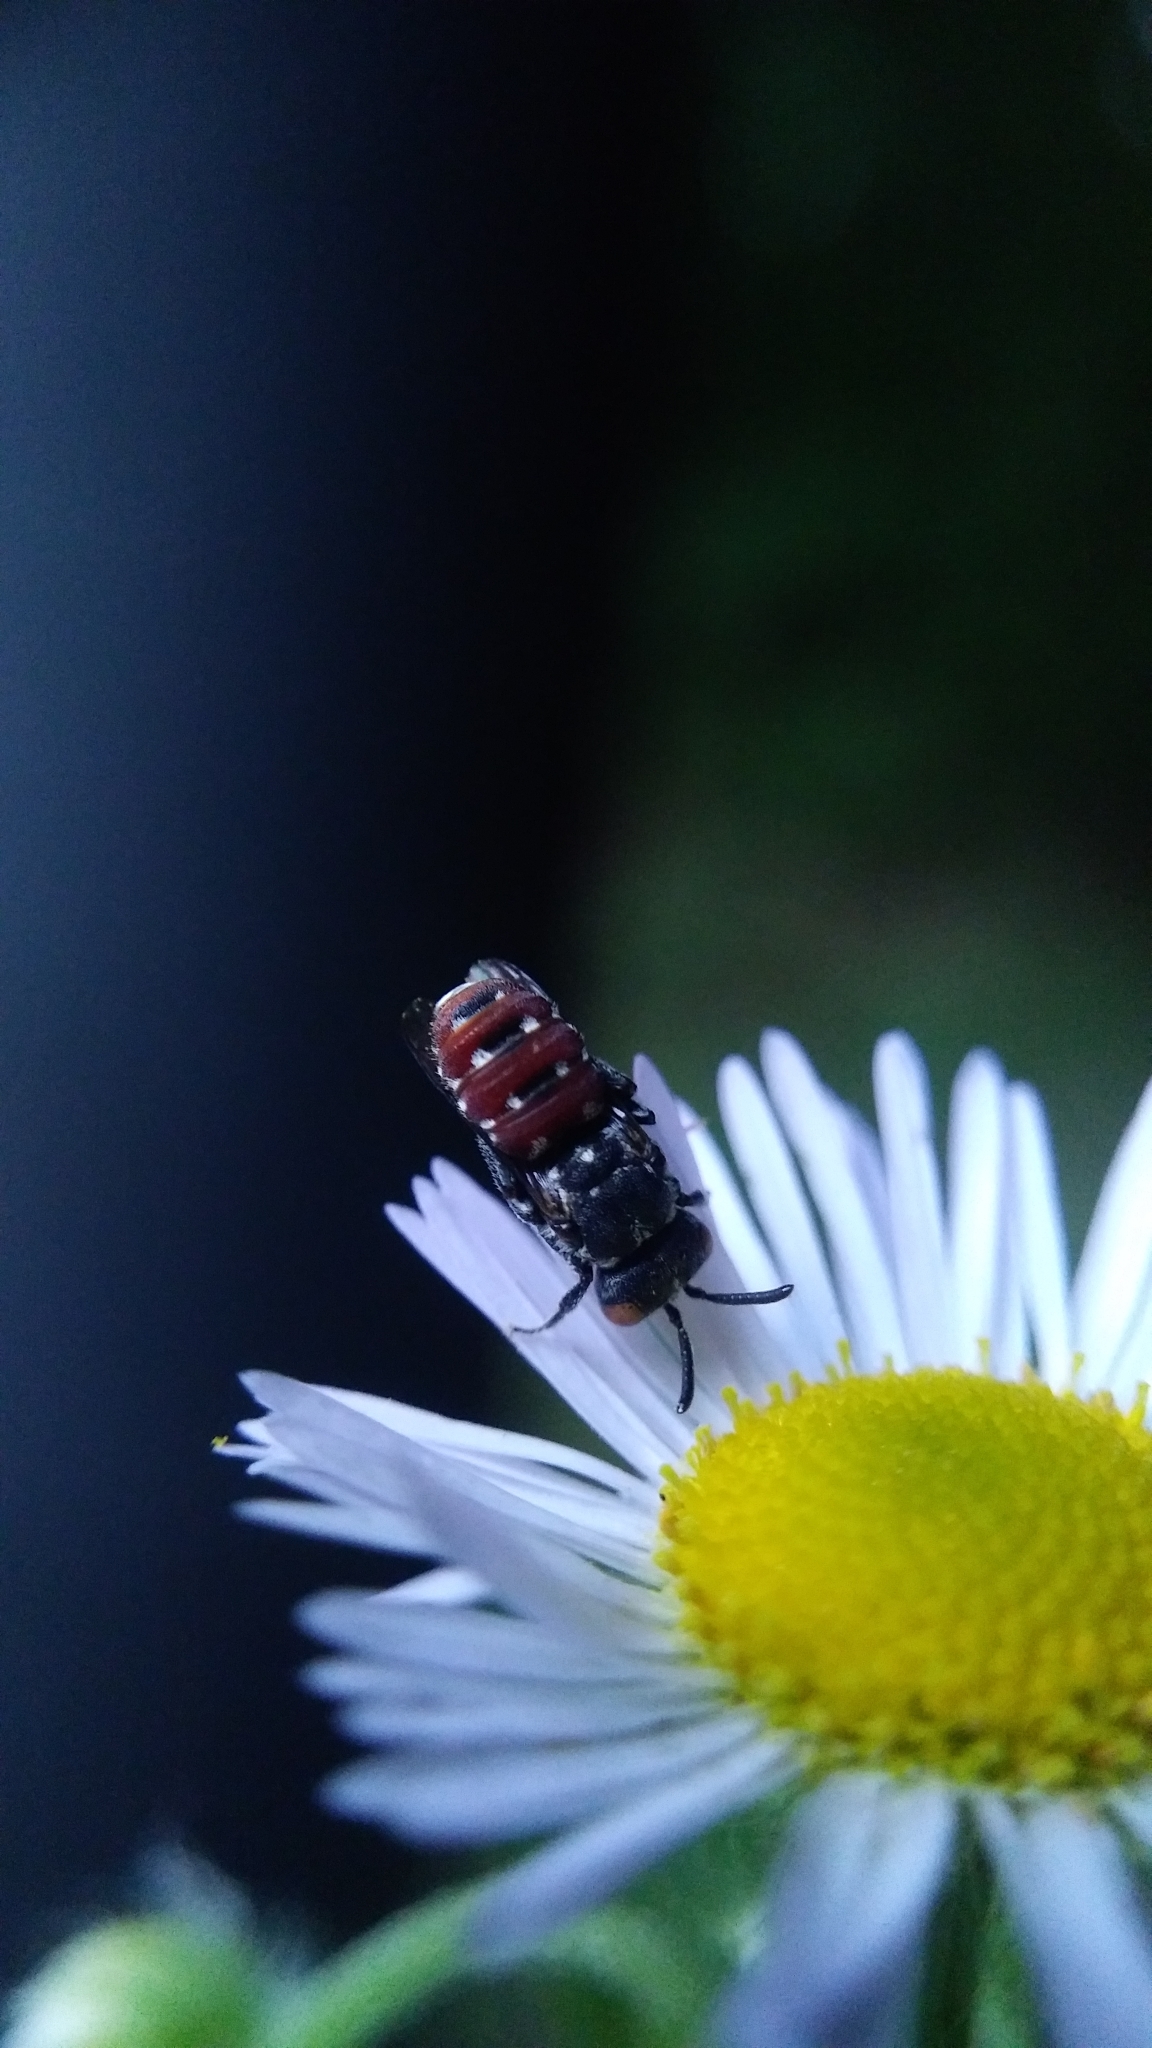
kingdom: Animalia
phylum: Arthropoda
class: Insecta
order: Hymenoptera
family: Apidae
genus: Holcopasites
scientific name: Holcopasites calliopsidis
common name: Calliopsis cuckoo nomad bee
